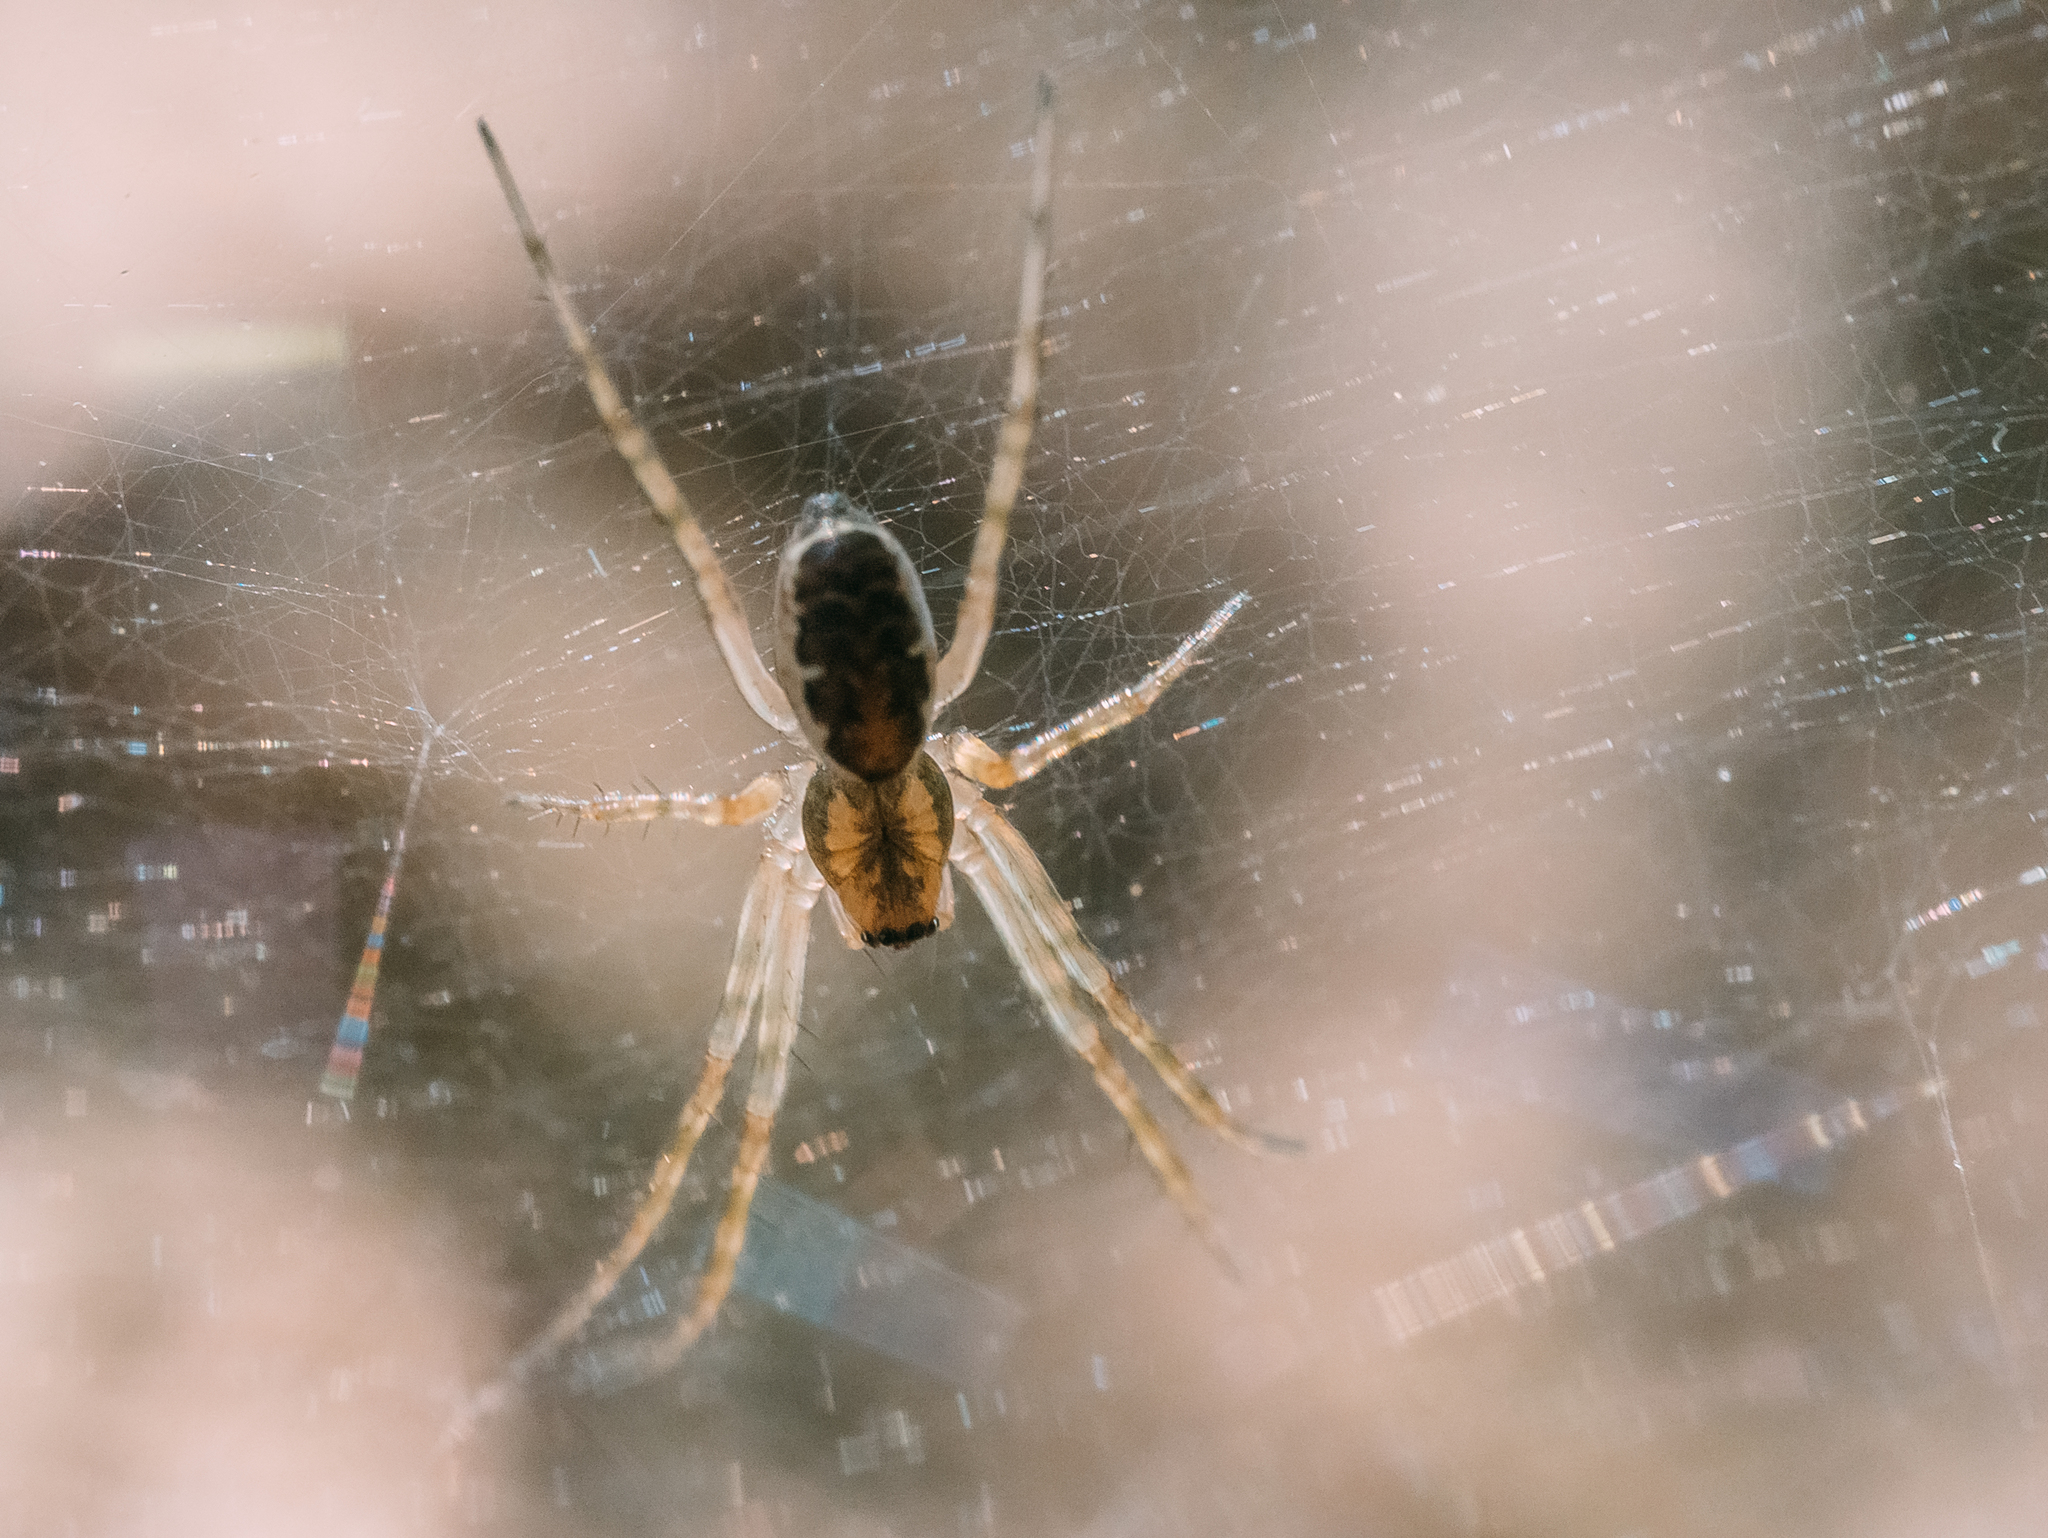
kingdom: Animalia
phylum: Arthropoda
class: Arachnida
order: Araneae
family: Linyphiidae
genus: Neriene
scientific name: Neriene montana
